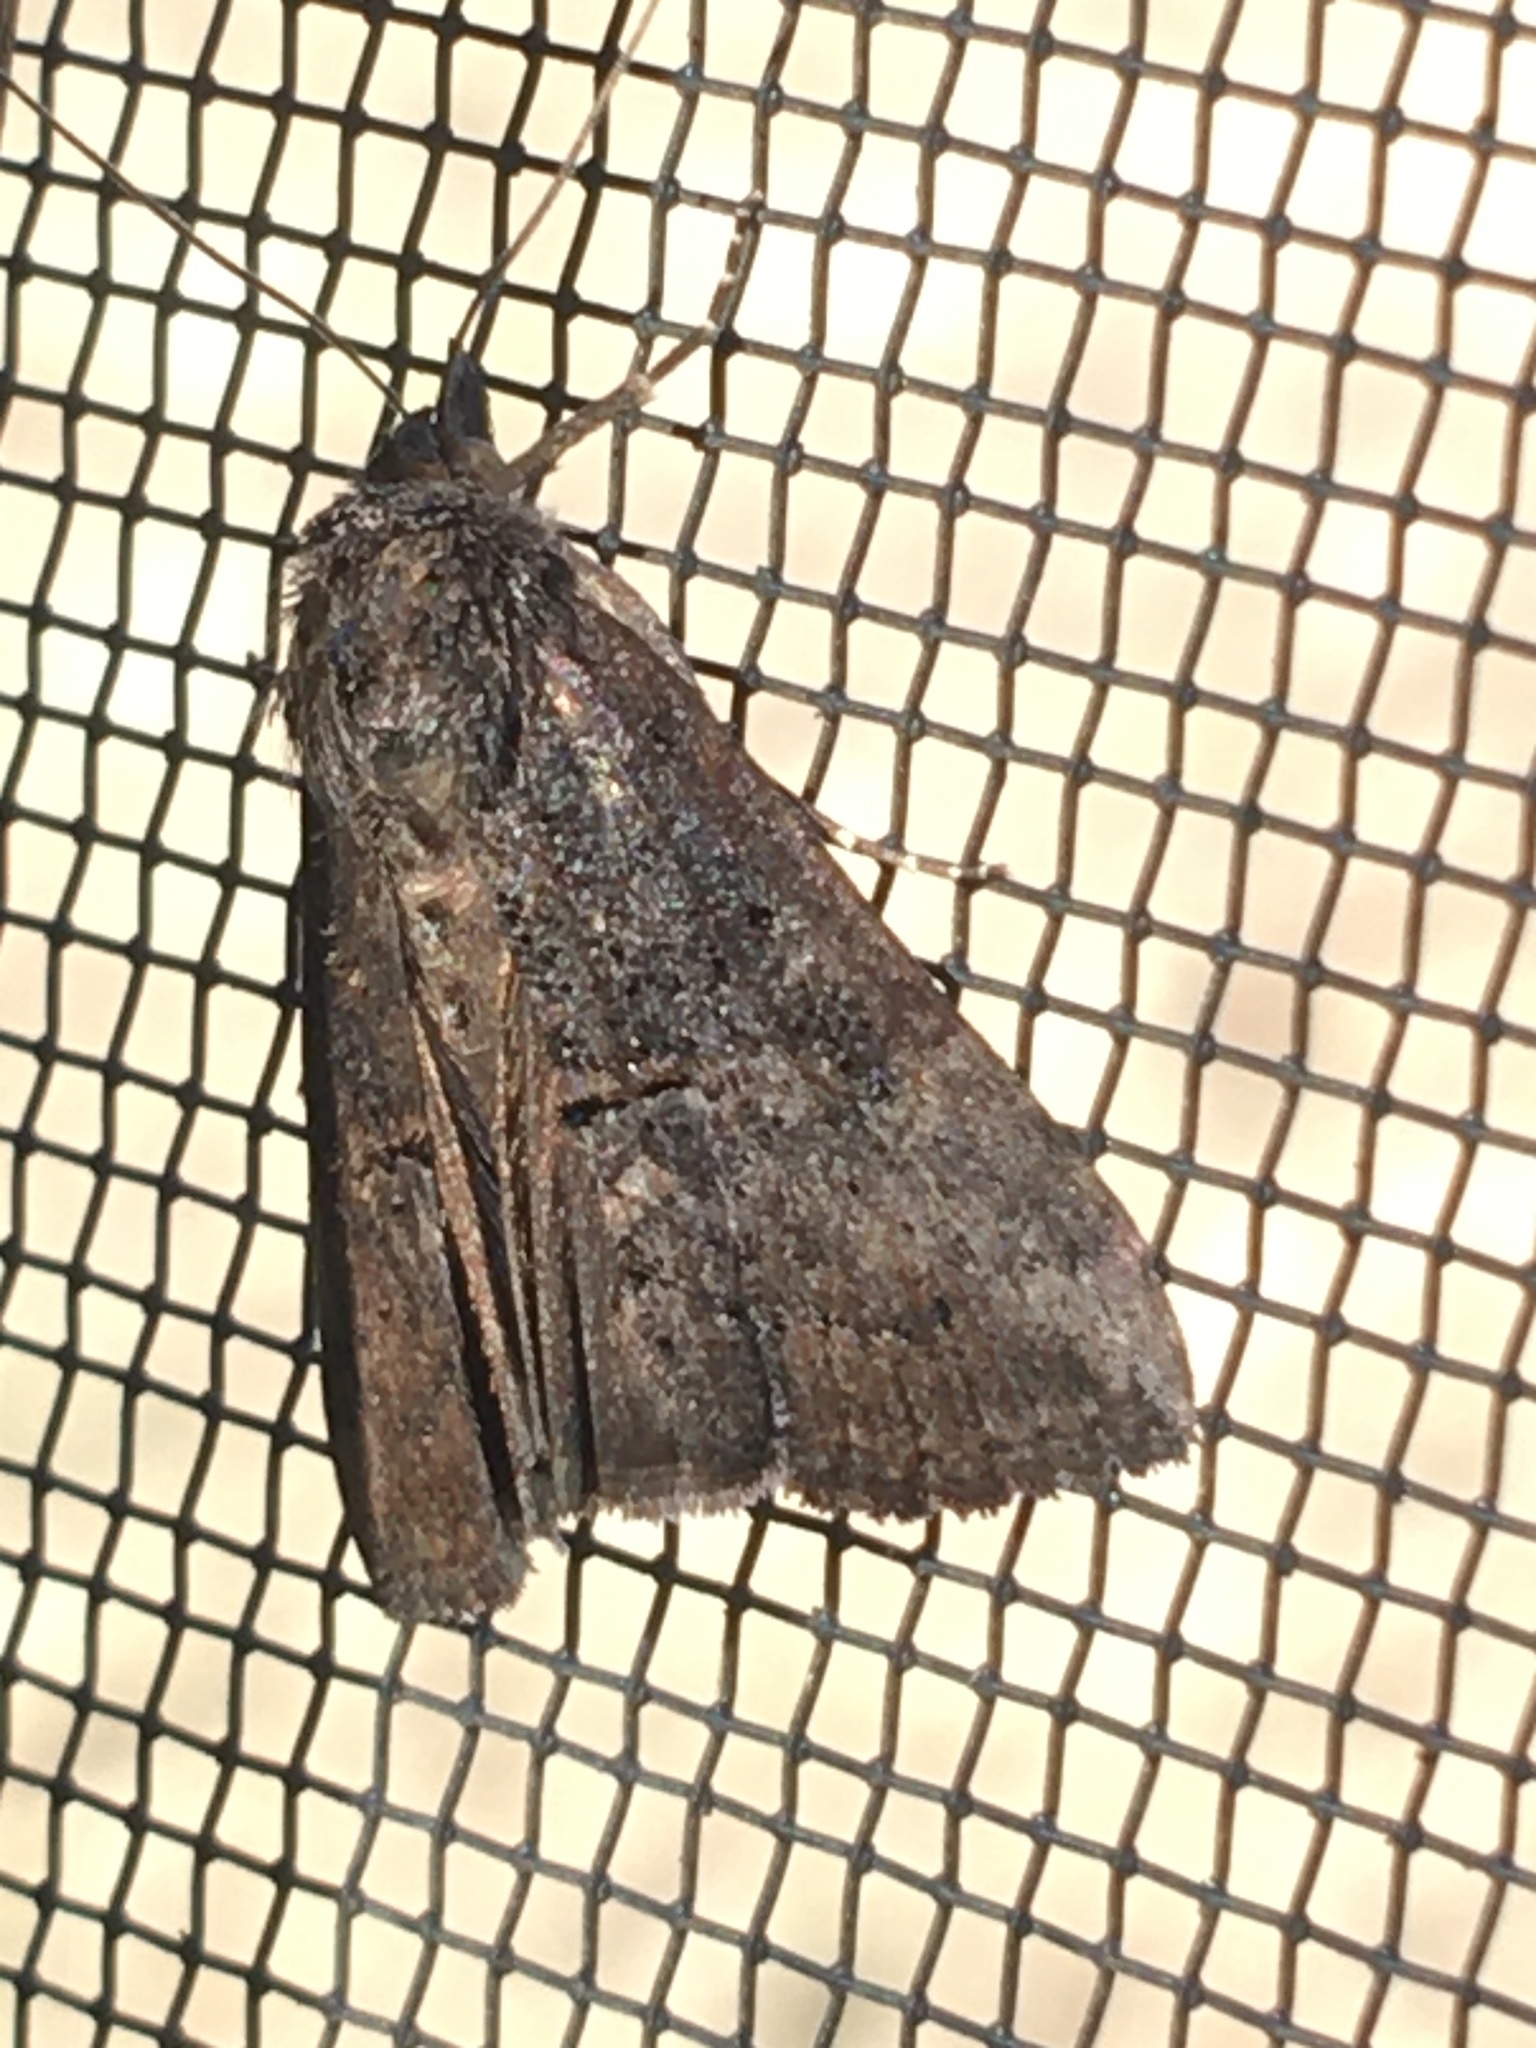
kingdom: Animalia
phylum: Arthropoda
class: Insecta
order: Lepidoptera
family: Erebidae
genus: Hypena
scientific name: Hypena scabra
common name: Green cloverworm
